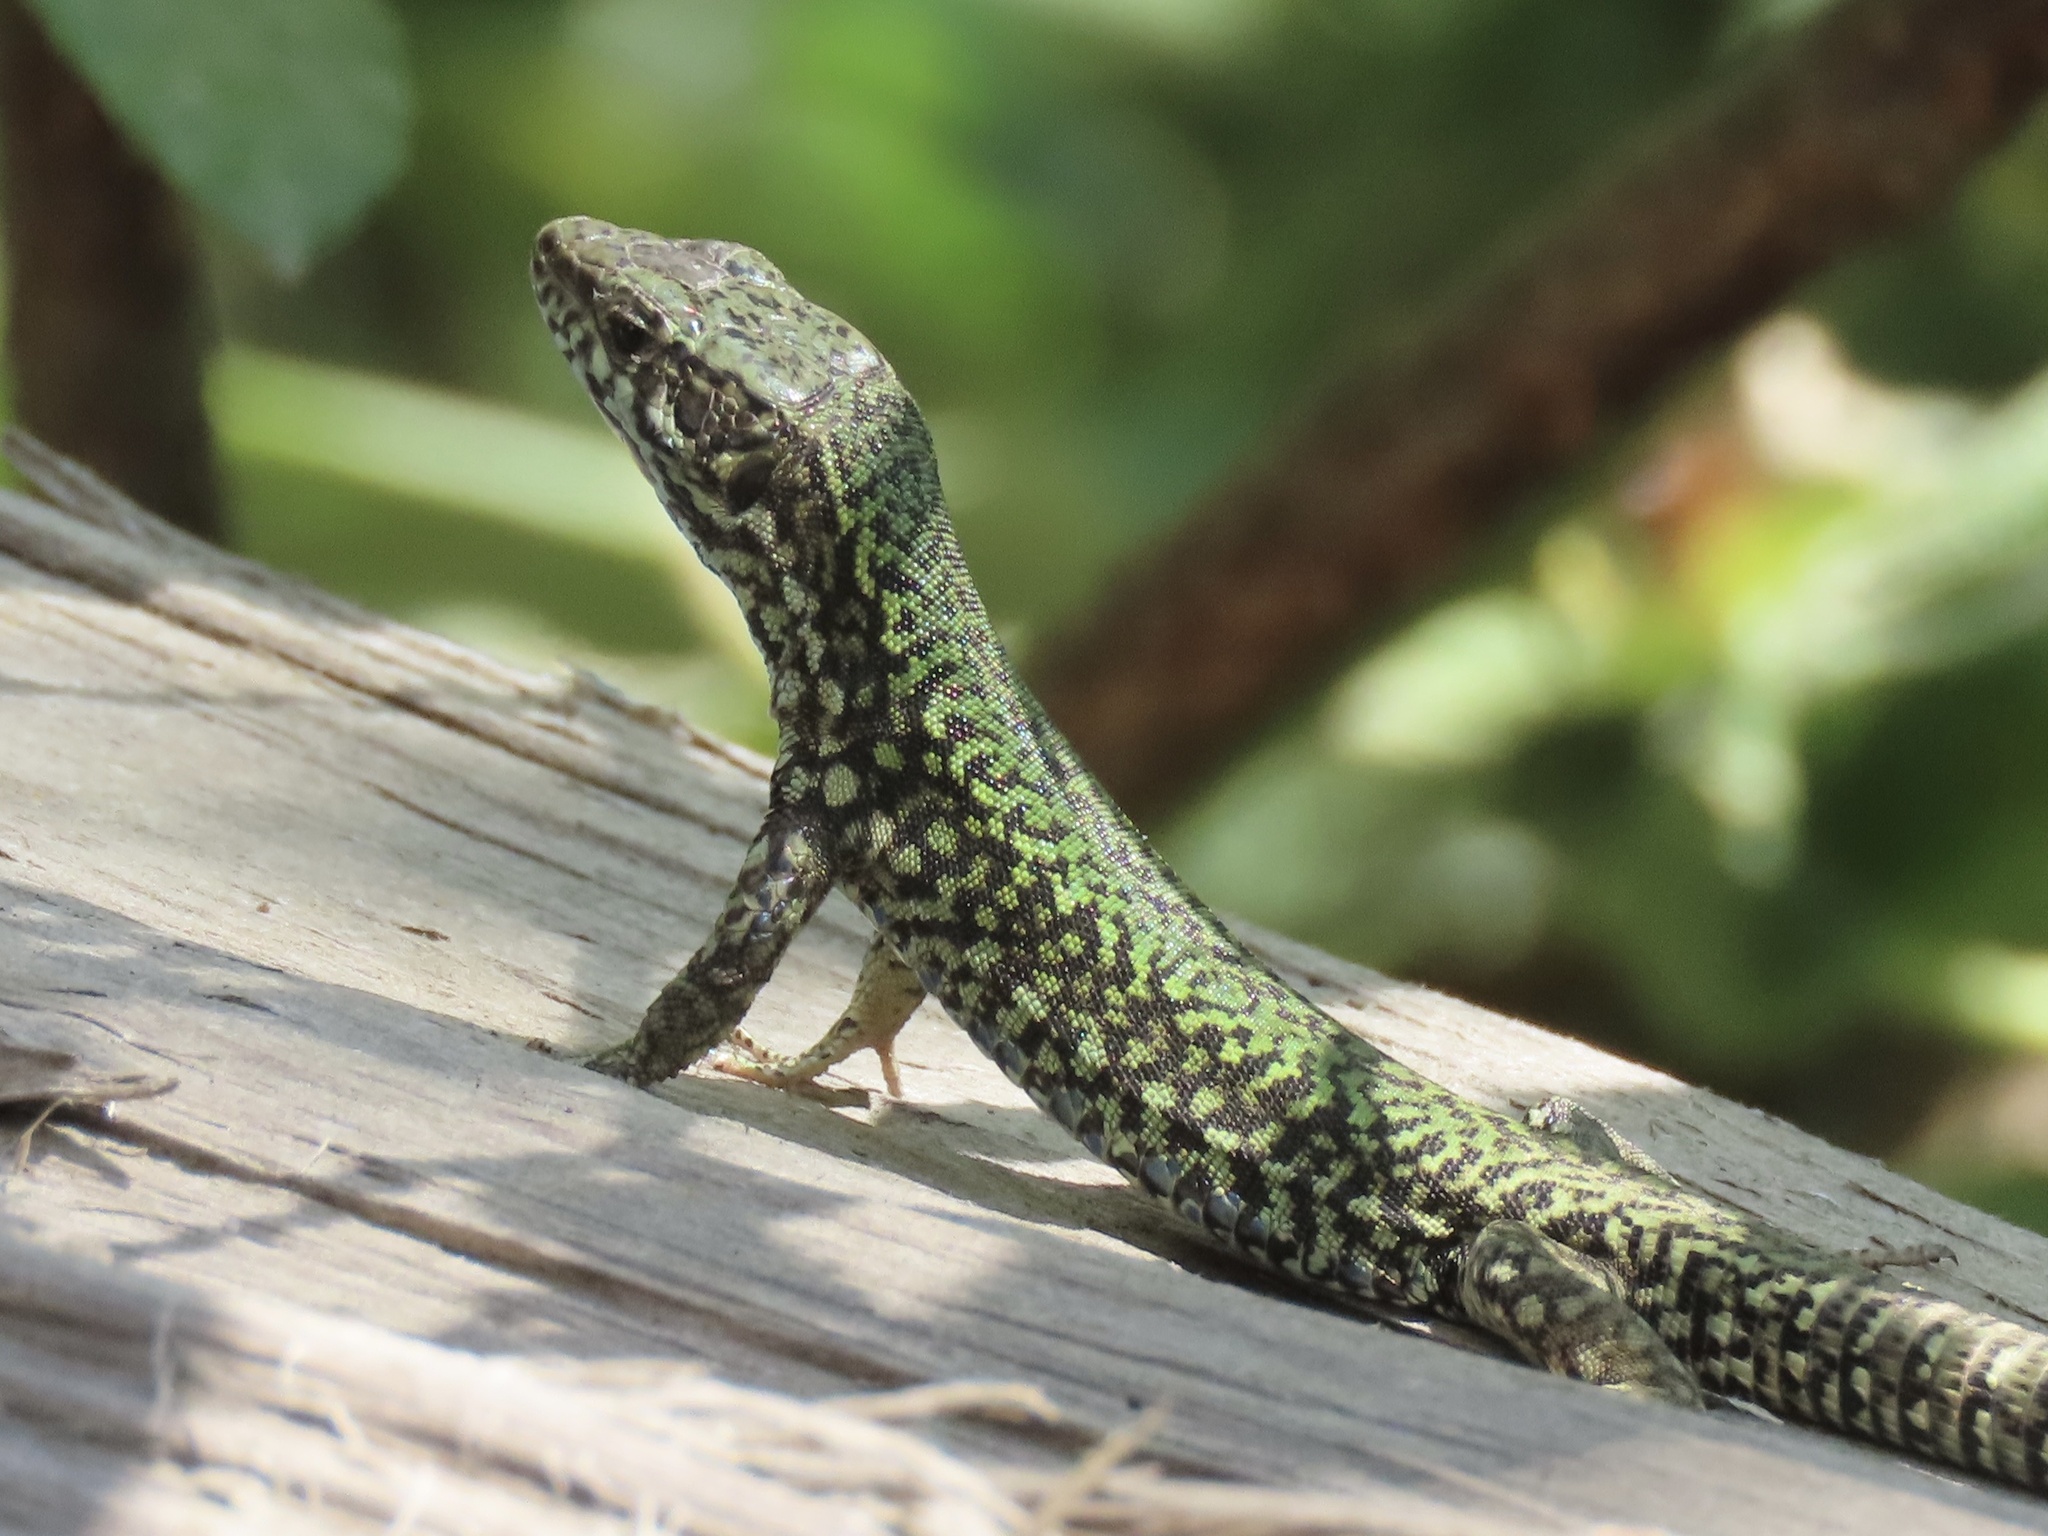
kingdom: Animalia
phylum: Chordata
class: Squamata
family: Lacertidae
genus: Podarcis
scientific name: Podarcis muralis
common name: Common wall lizard
